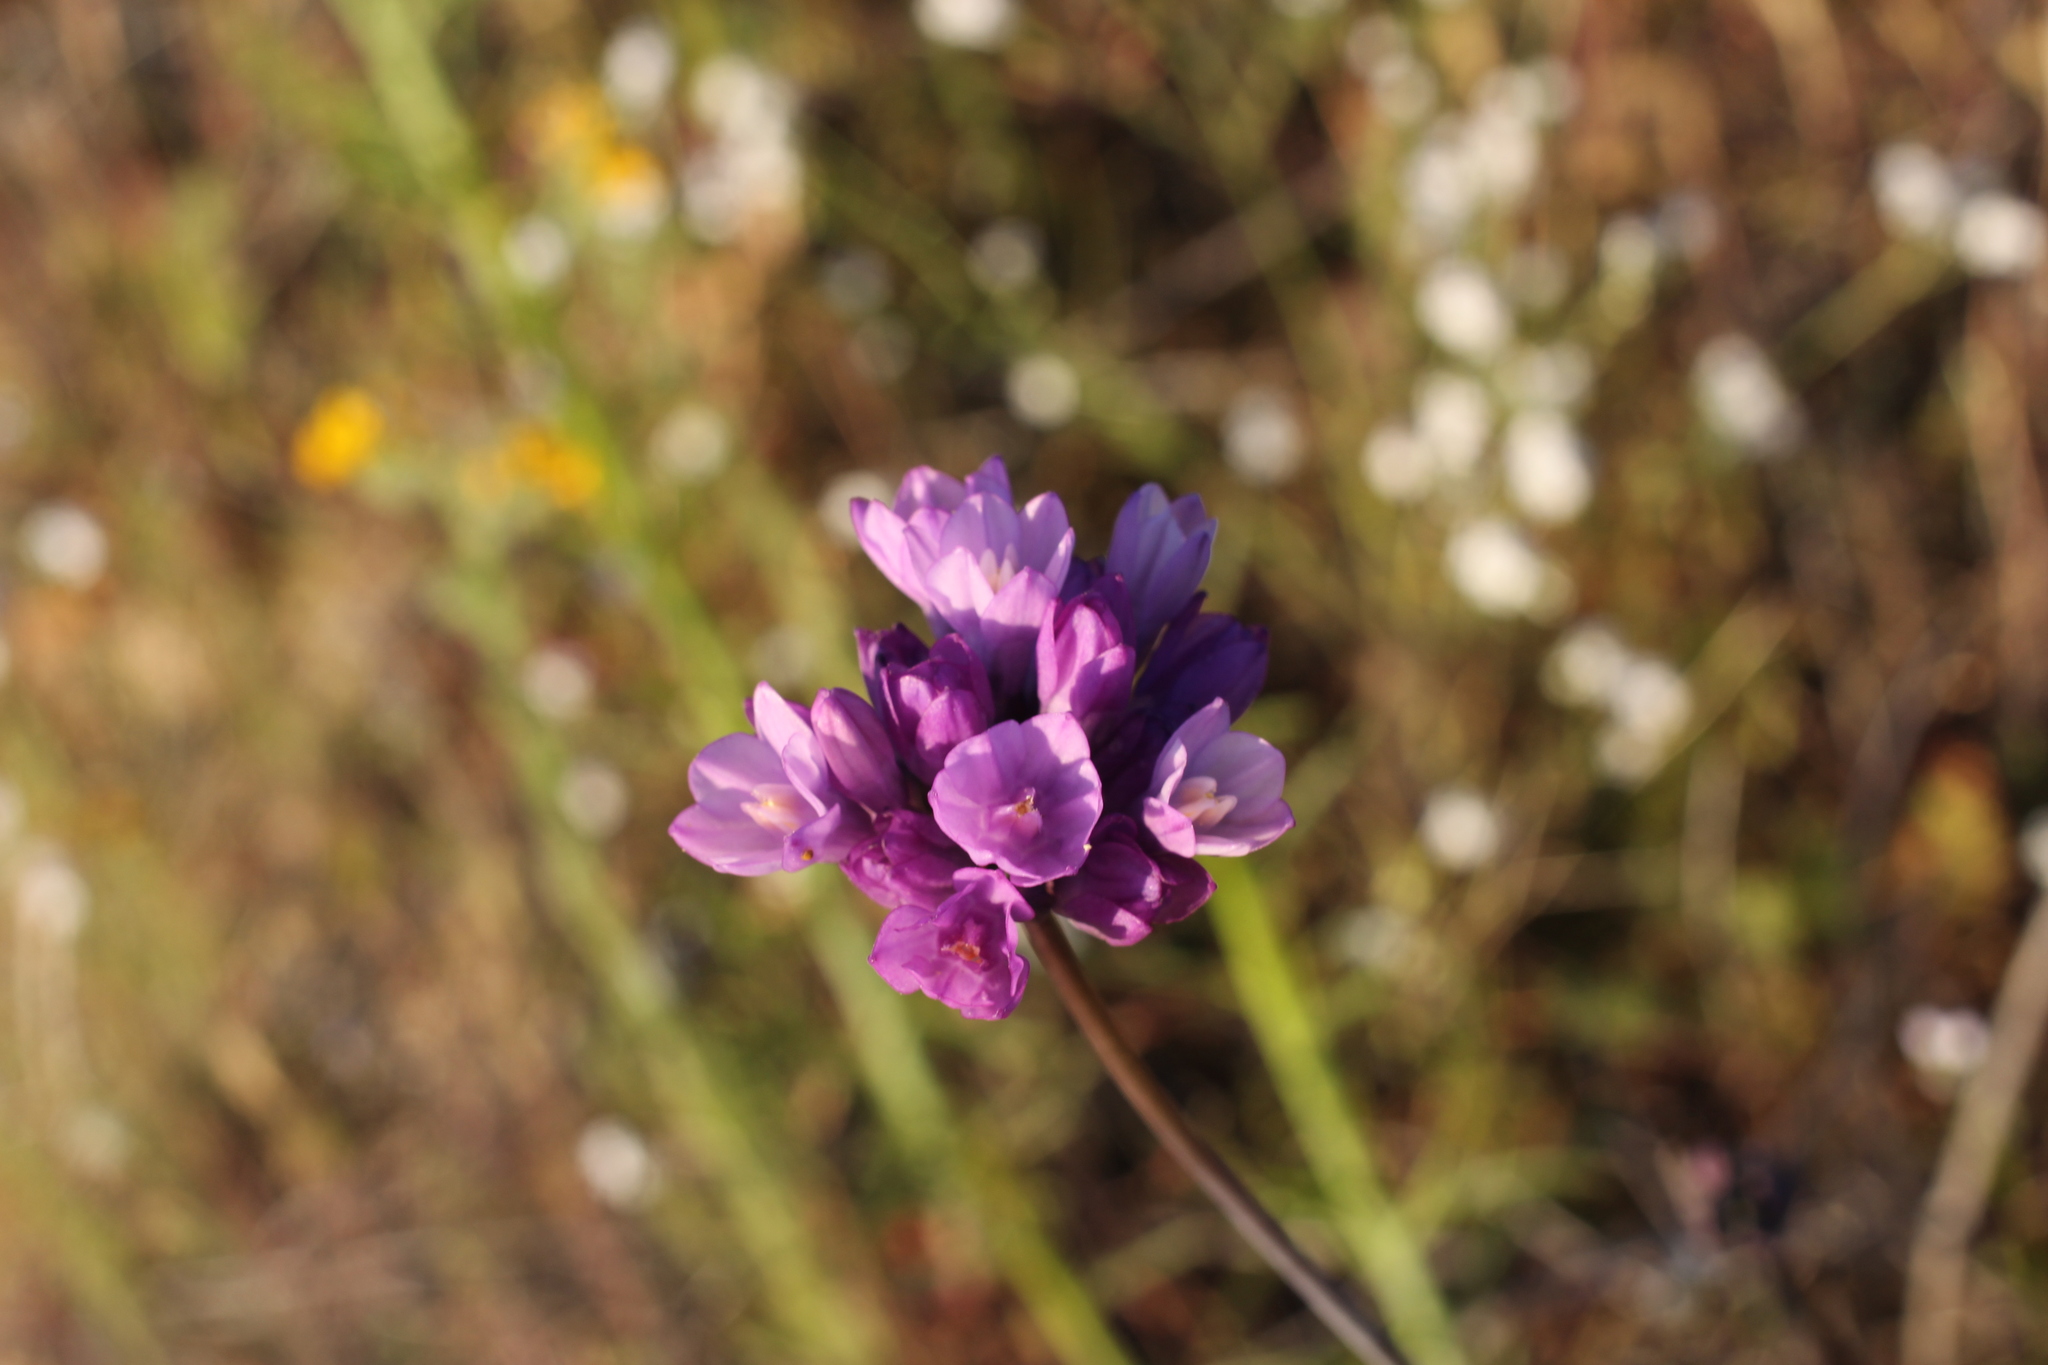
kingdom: Plantae
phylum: Tracheophyta
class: Liliopsida
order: Asparagales
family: Asparagaceae
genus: Dipterostemon
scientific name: Dipterostemon capitatus
